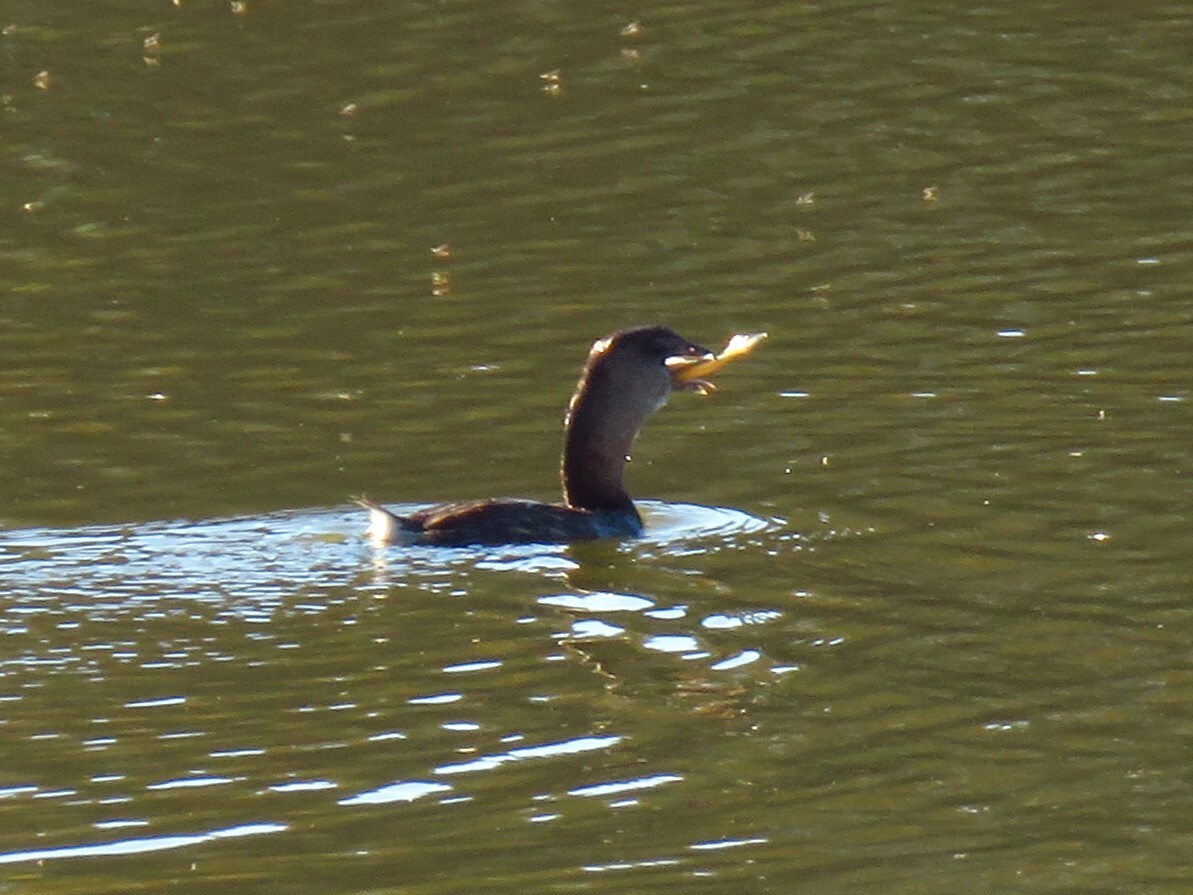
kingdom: Animalia
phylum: Chordata
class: Aves
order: Podicipediformes
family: Podicipedidae
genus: Podilymbus
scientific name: Podilymbus podiceps
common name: Pied-billed grebe
